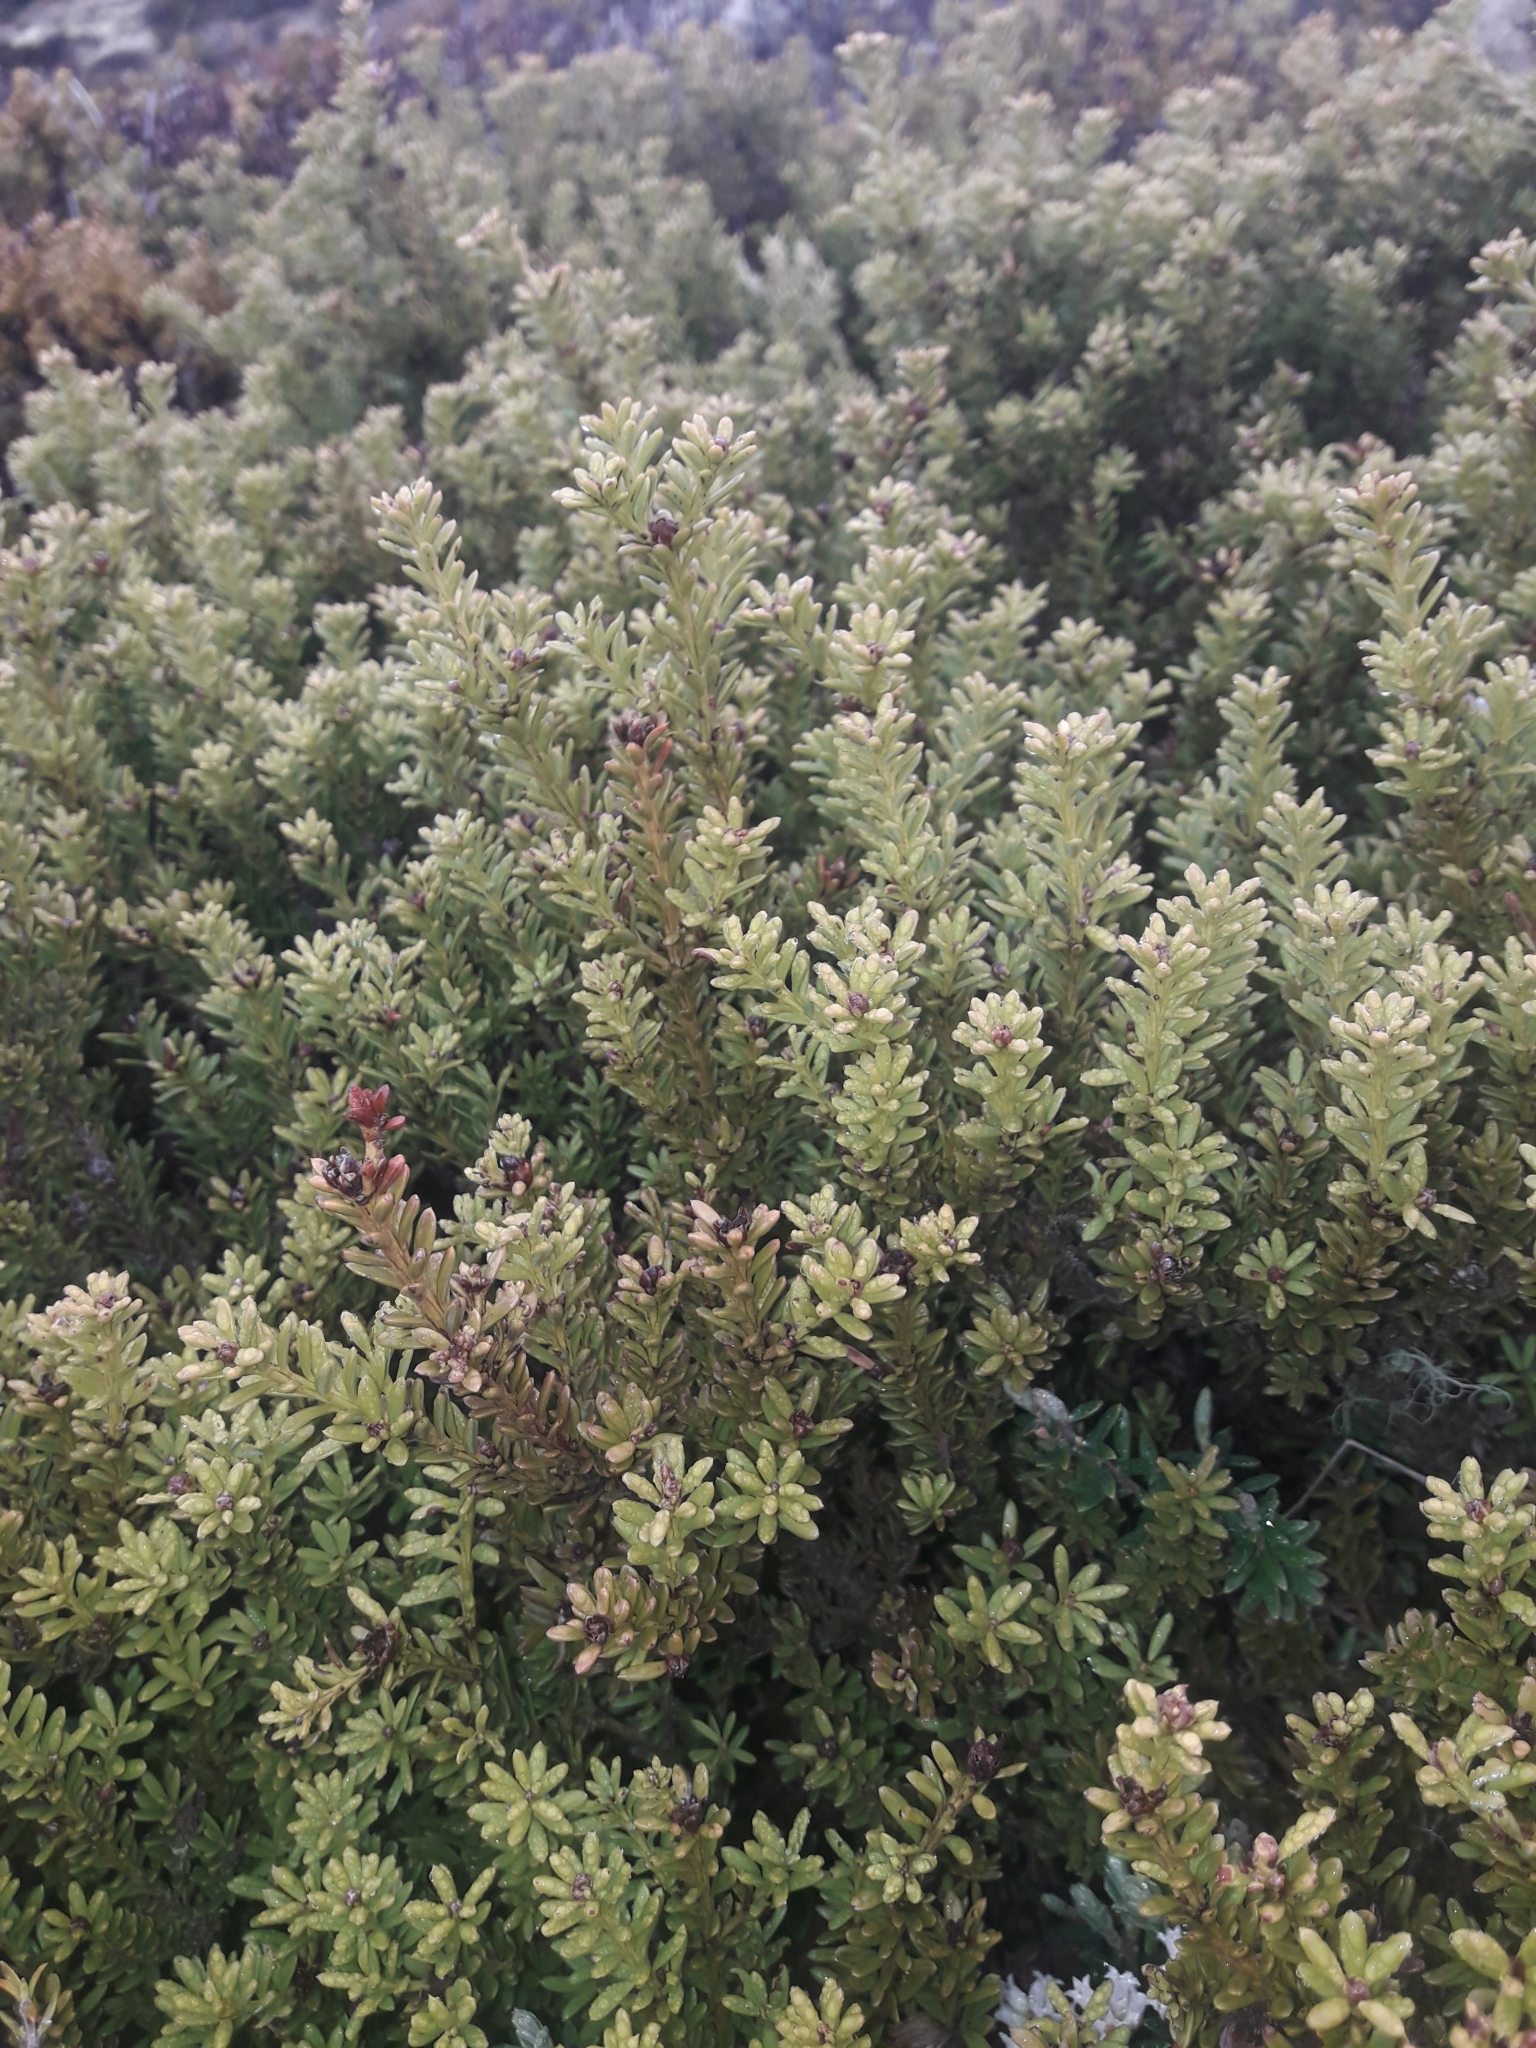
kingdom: Plantae
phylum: Tracheophyta
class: Pinopsida
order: Pinales
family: Podocarpaceae
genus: Podocarpus
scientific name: Podocarpus nivalis
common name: Alpine totara
